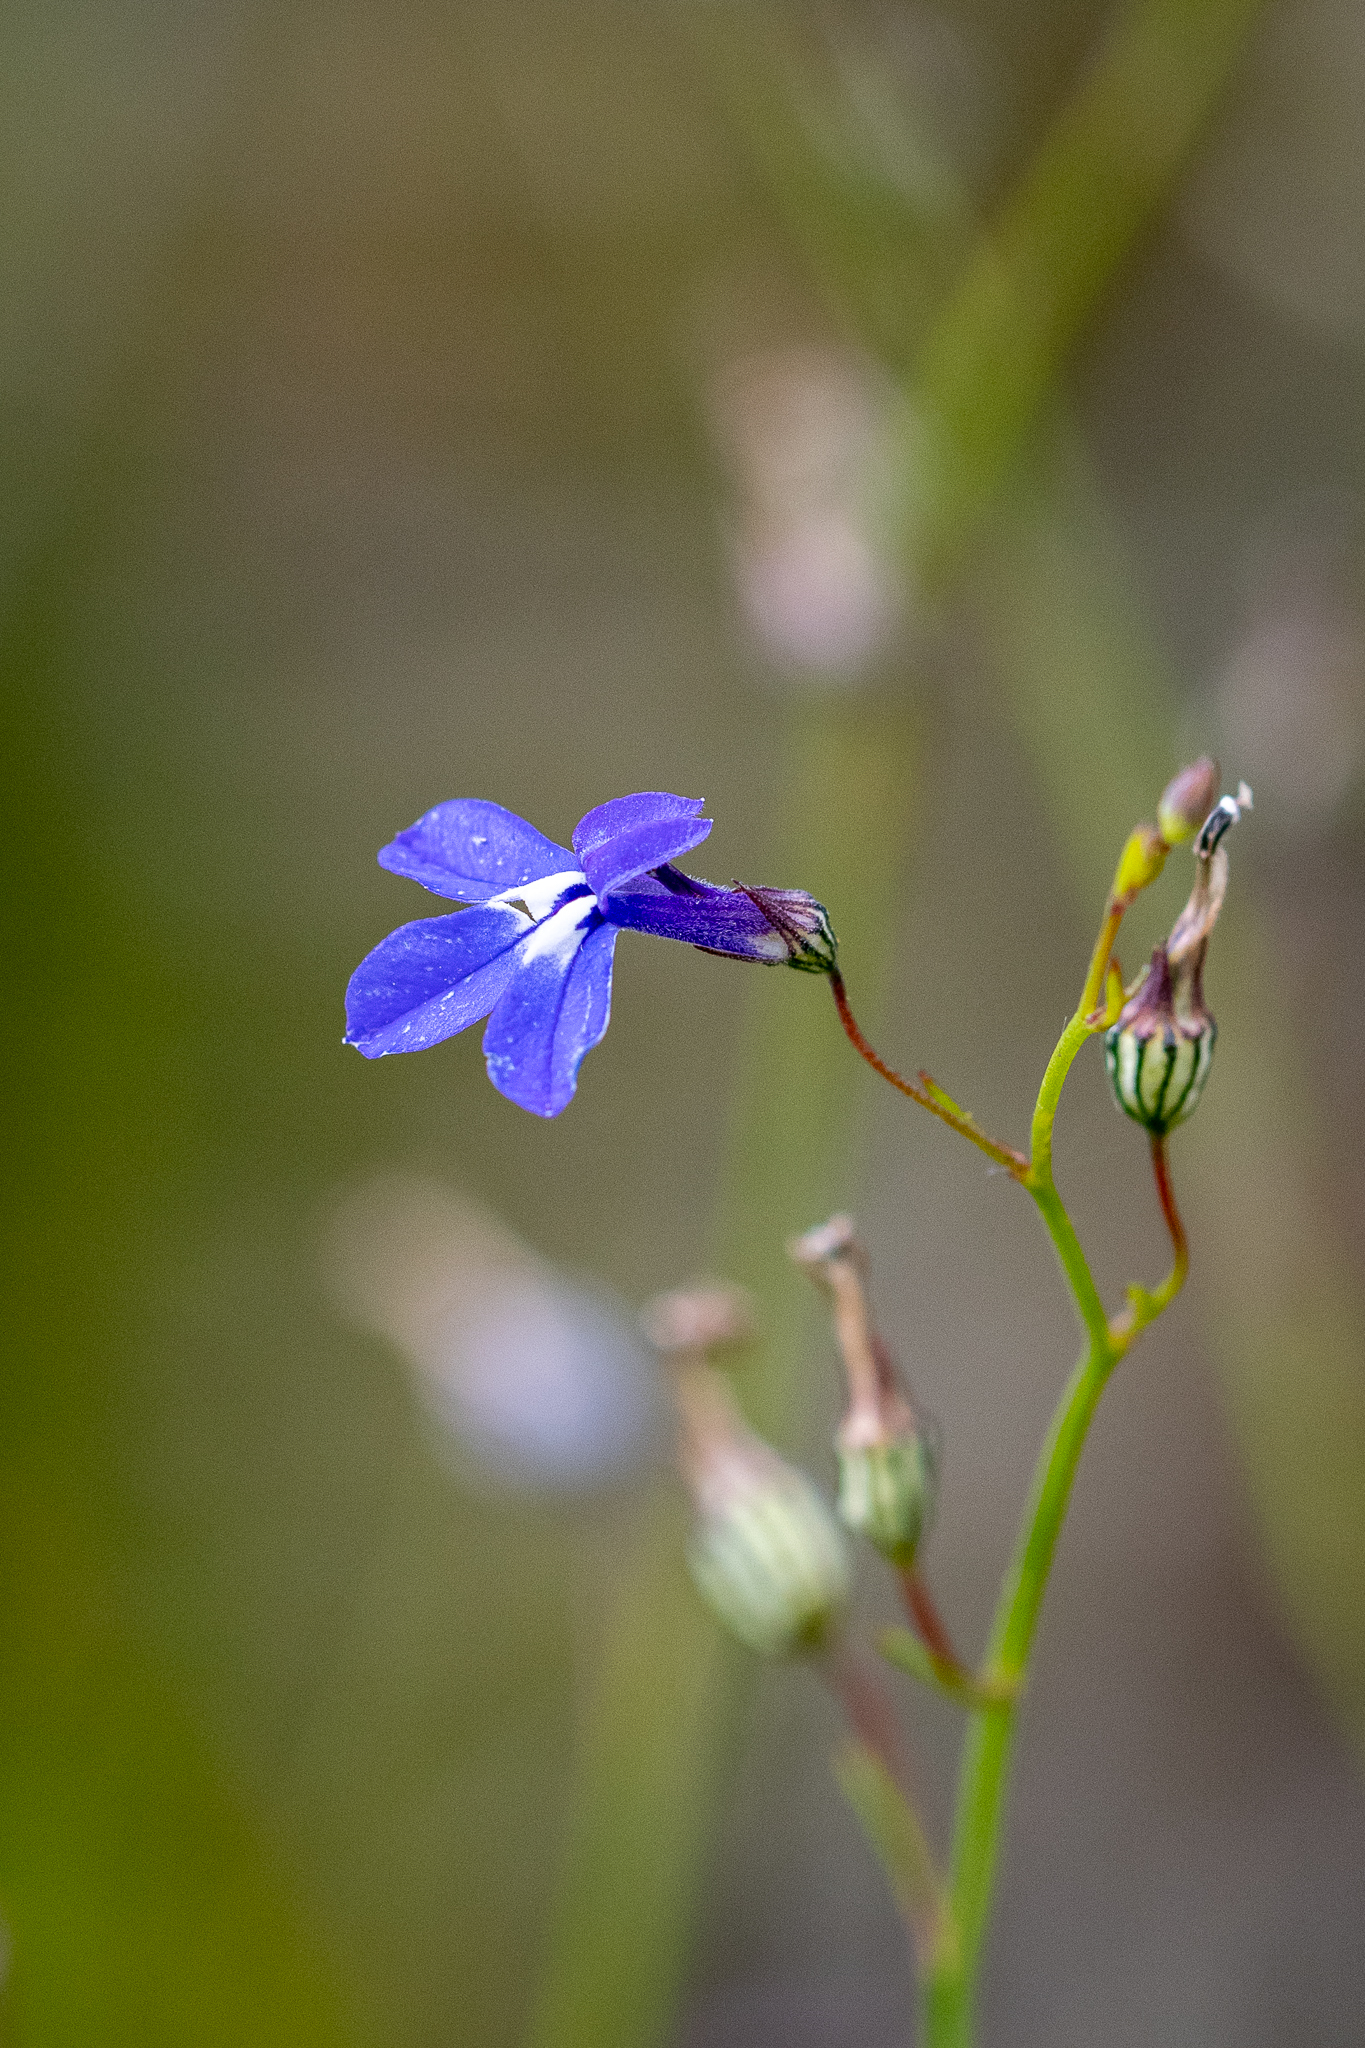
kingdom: Plantae
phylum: Tracheophyta
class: Magnoliopsida
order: Asterales
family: Campanulaceae
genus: Lobelia
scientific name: Lobelia setacea
